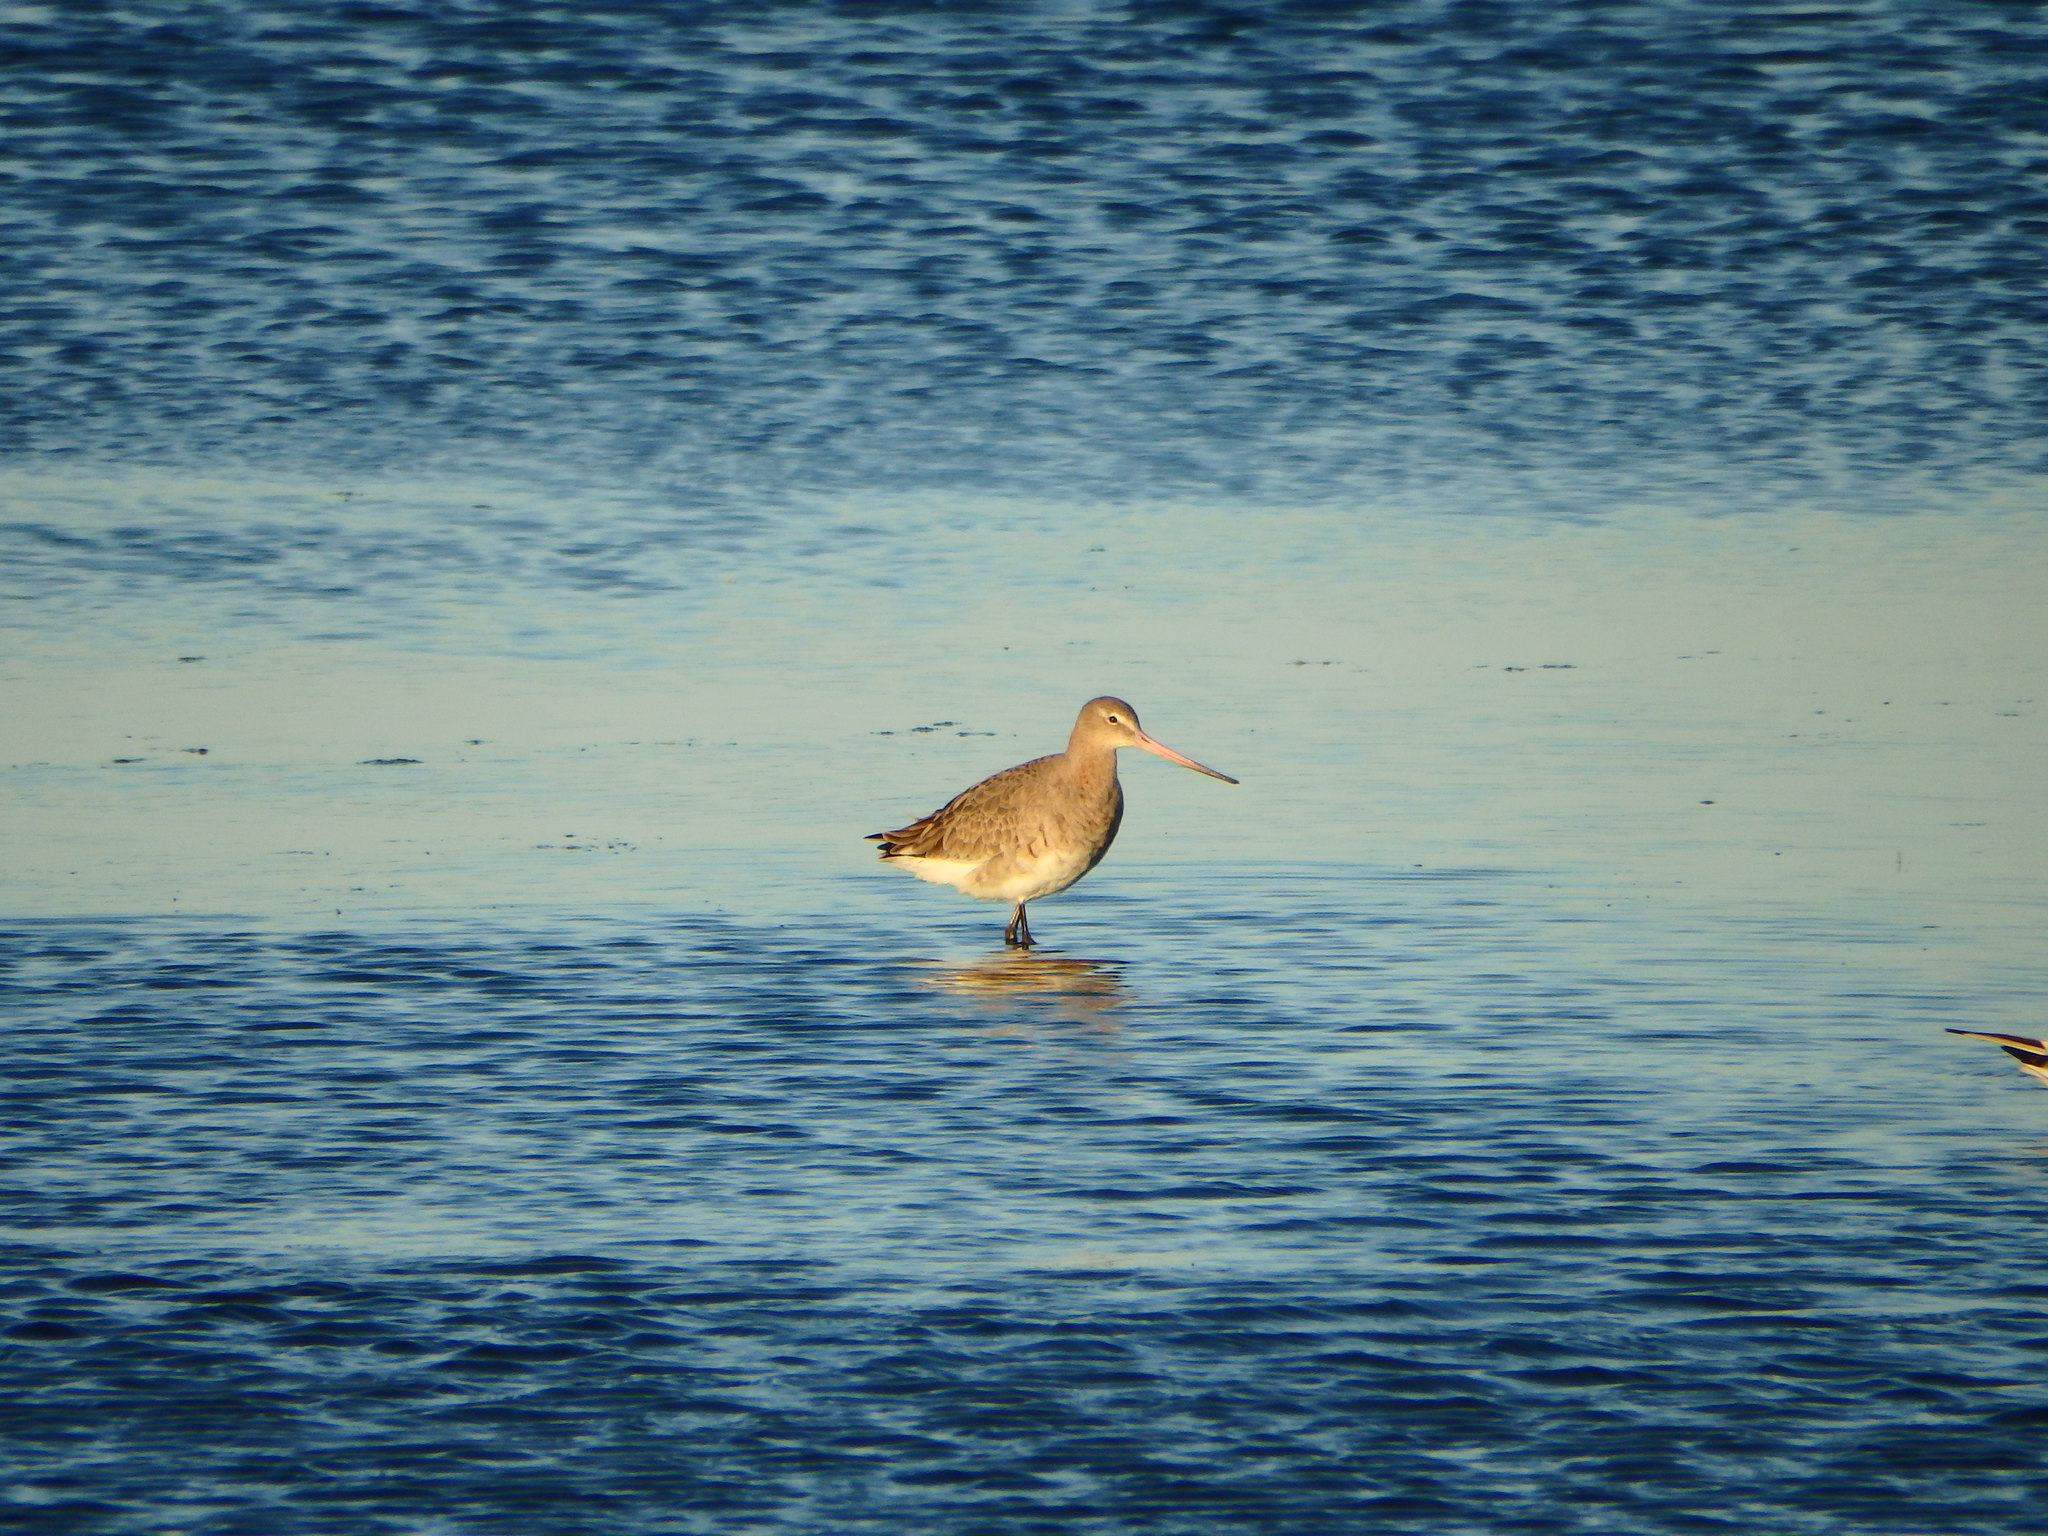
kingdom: Animalia
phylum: Chordata
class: Aves
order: Charadriiformes
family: Scolopacidae
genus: Limosa
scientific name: Limosa limosa
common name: Black-tailed godwit
